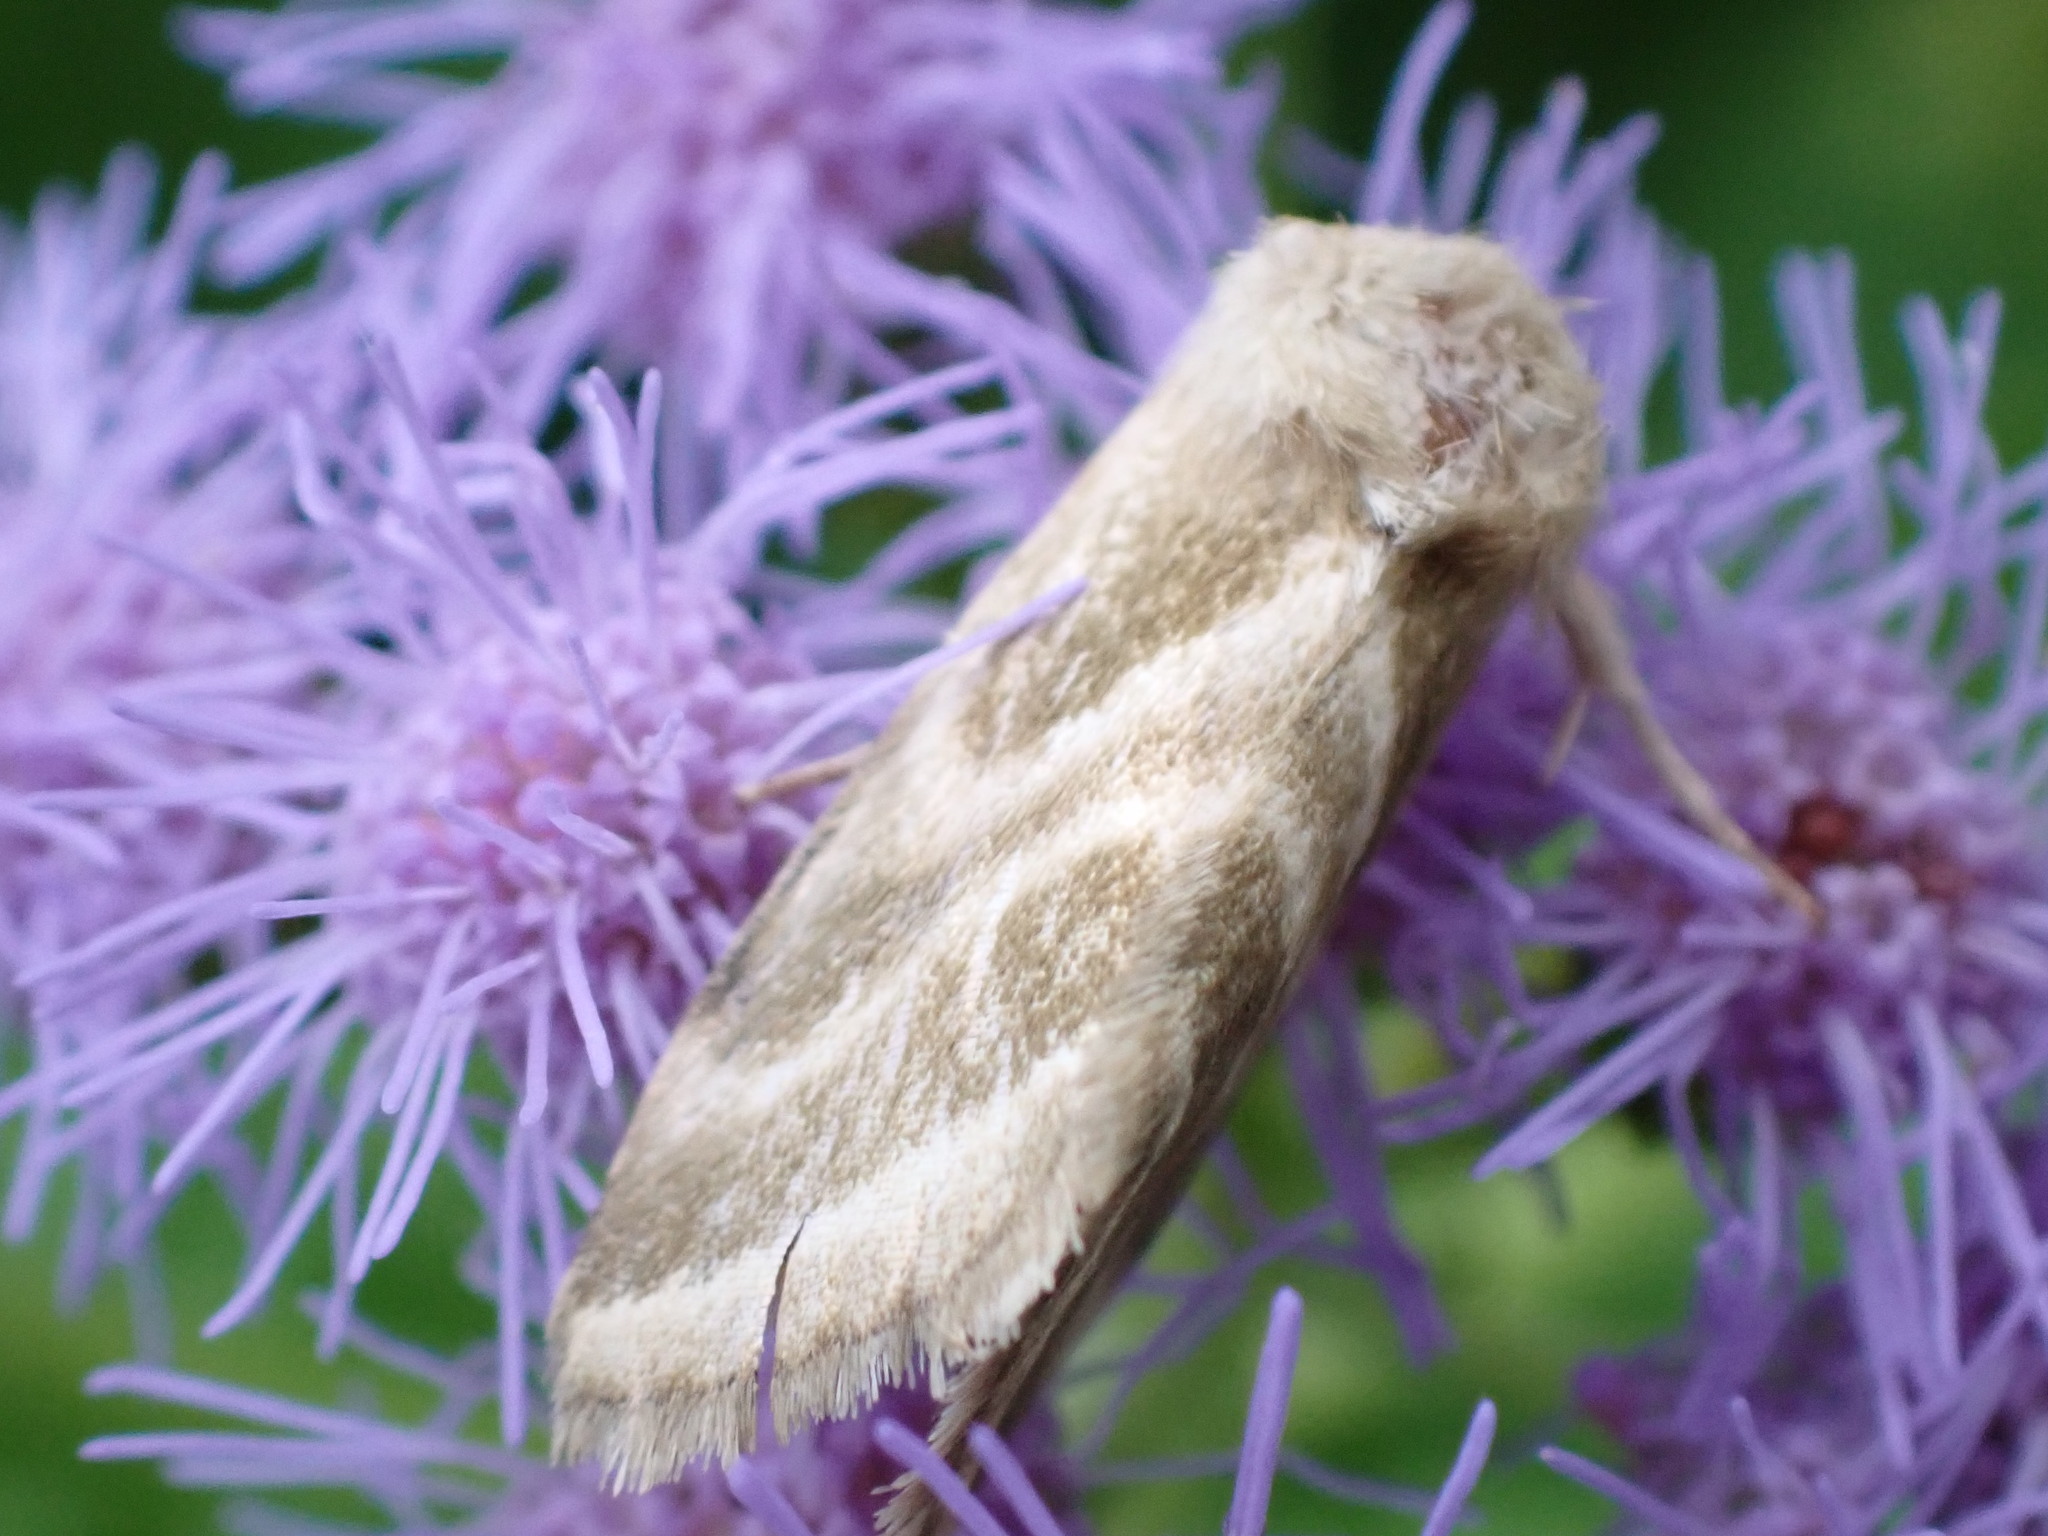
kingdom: Animalia
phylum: Arthropoda
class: Insecta
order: Lepidoptera
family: Noctuidae
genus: Schinia
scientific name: Schinia trifascia
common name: Three-lined flower moth
